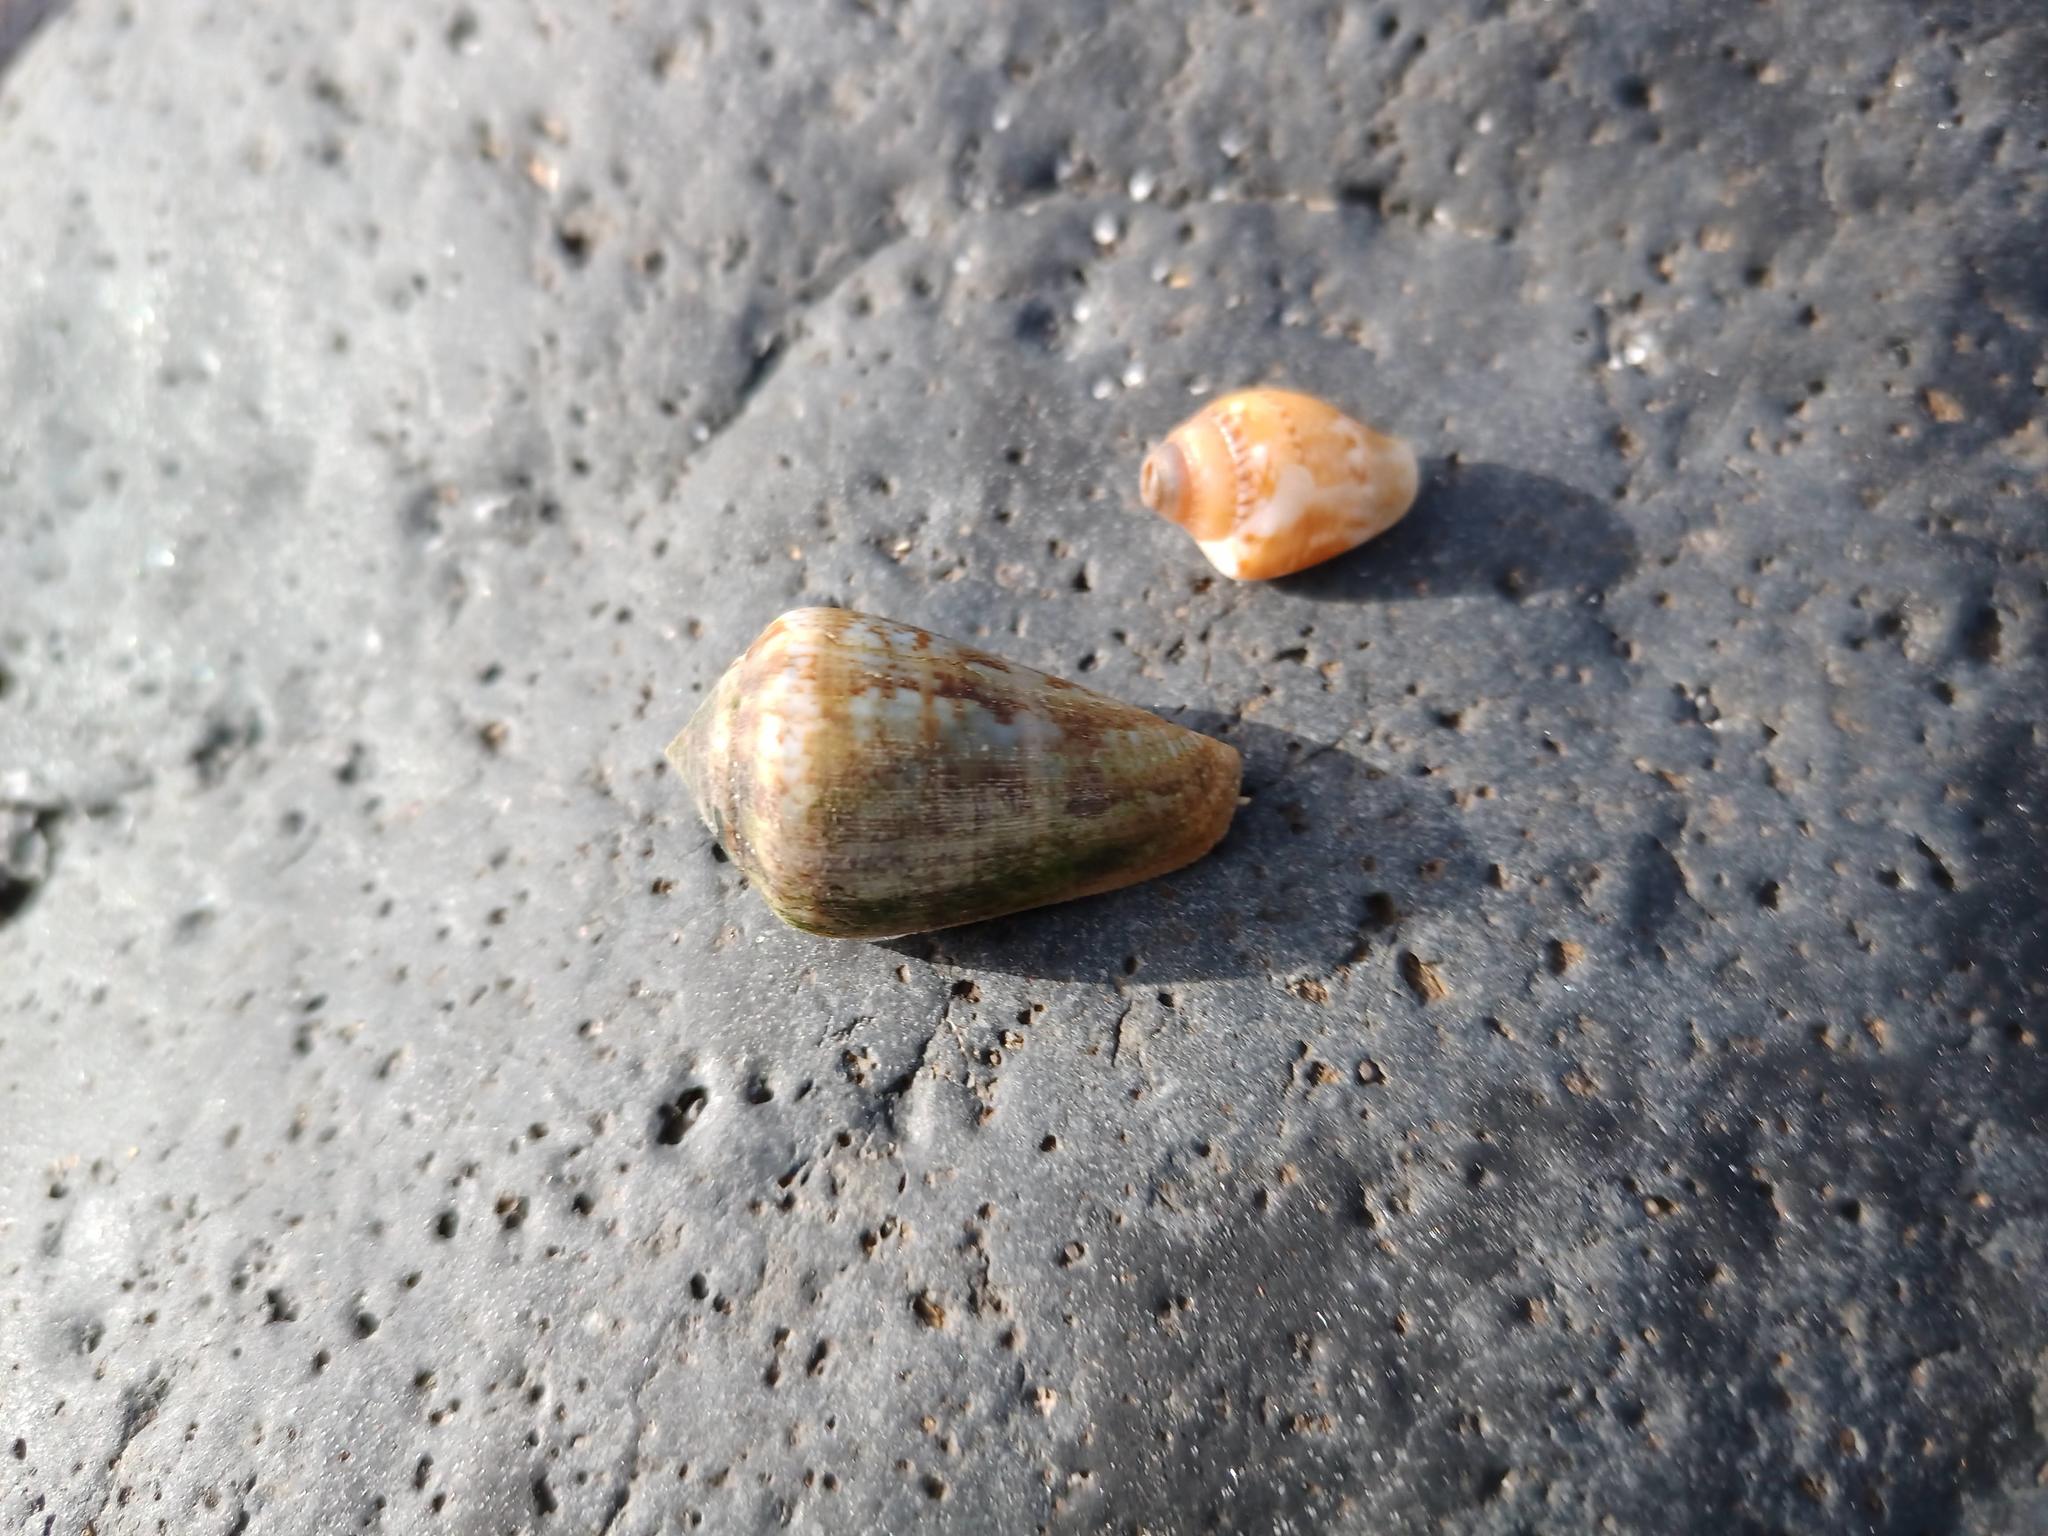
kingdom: Animalia
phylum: Mollusca
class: Gastropoda
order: Neogastropoda
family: Conidae
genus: Conus
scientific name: Conus guanche
